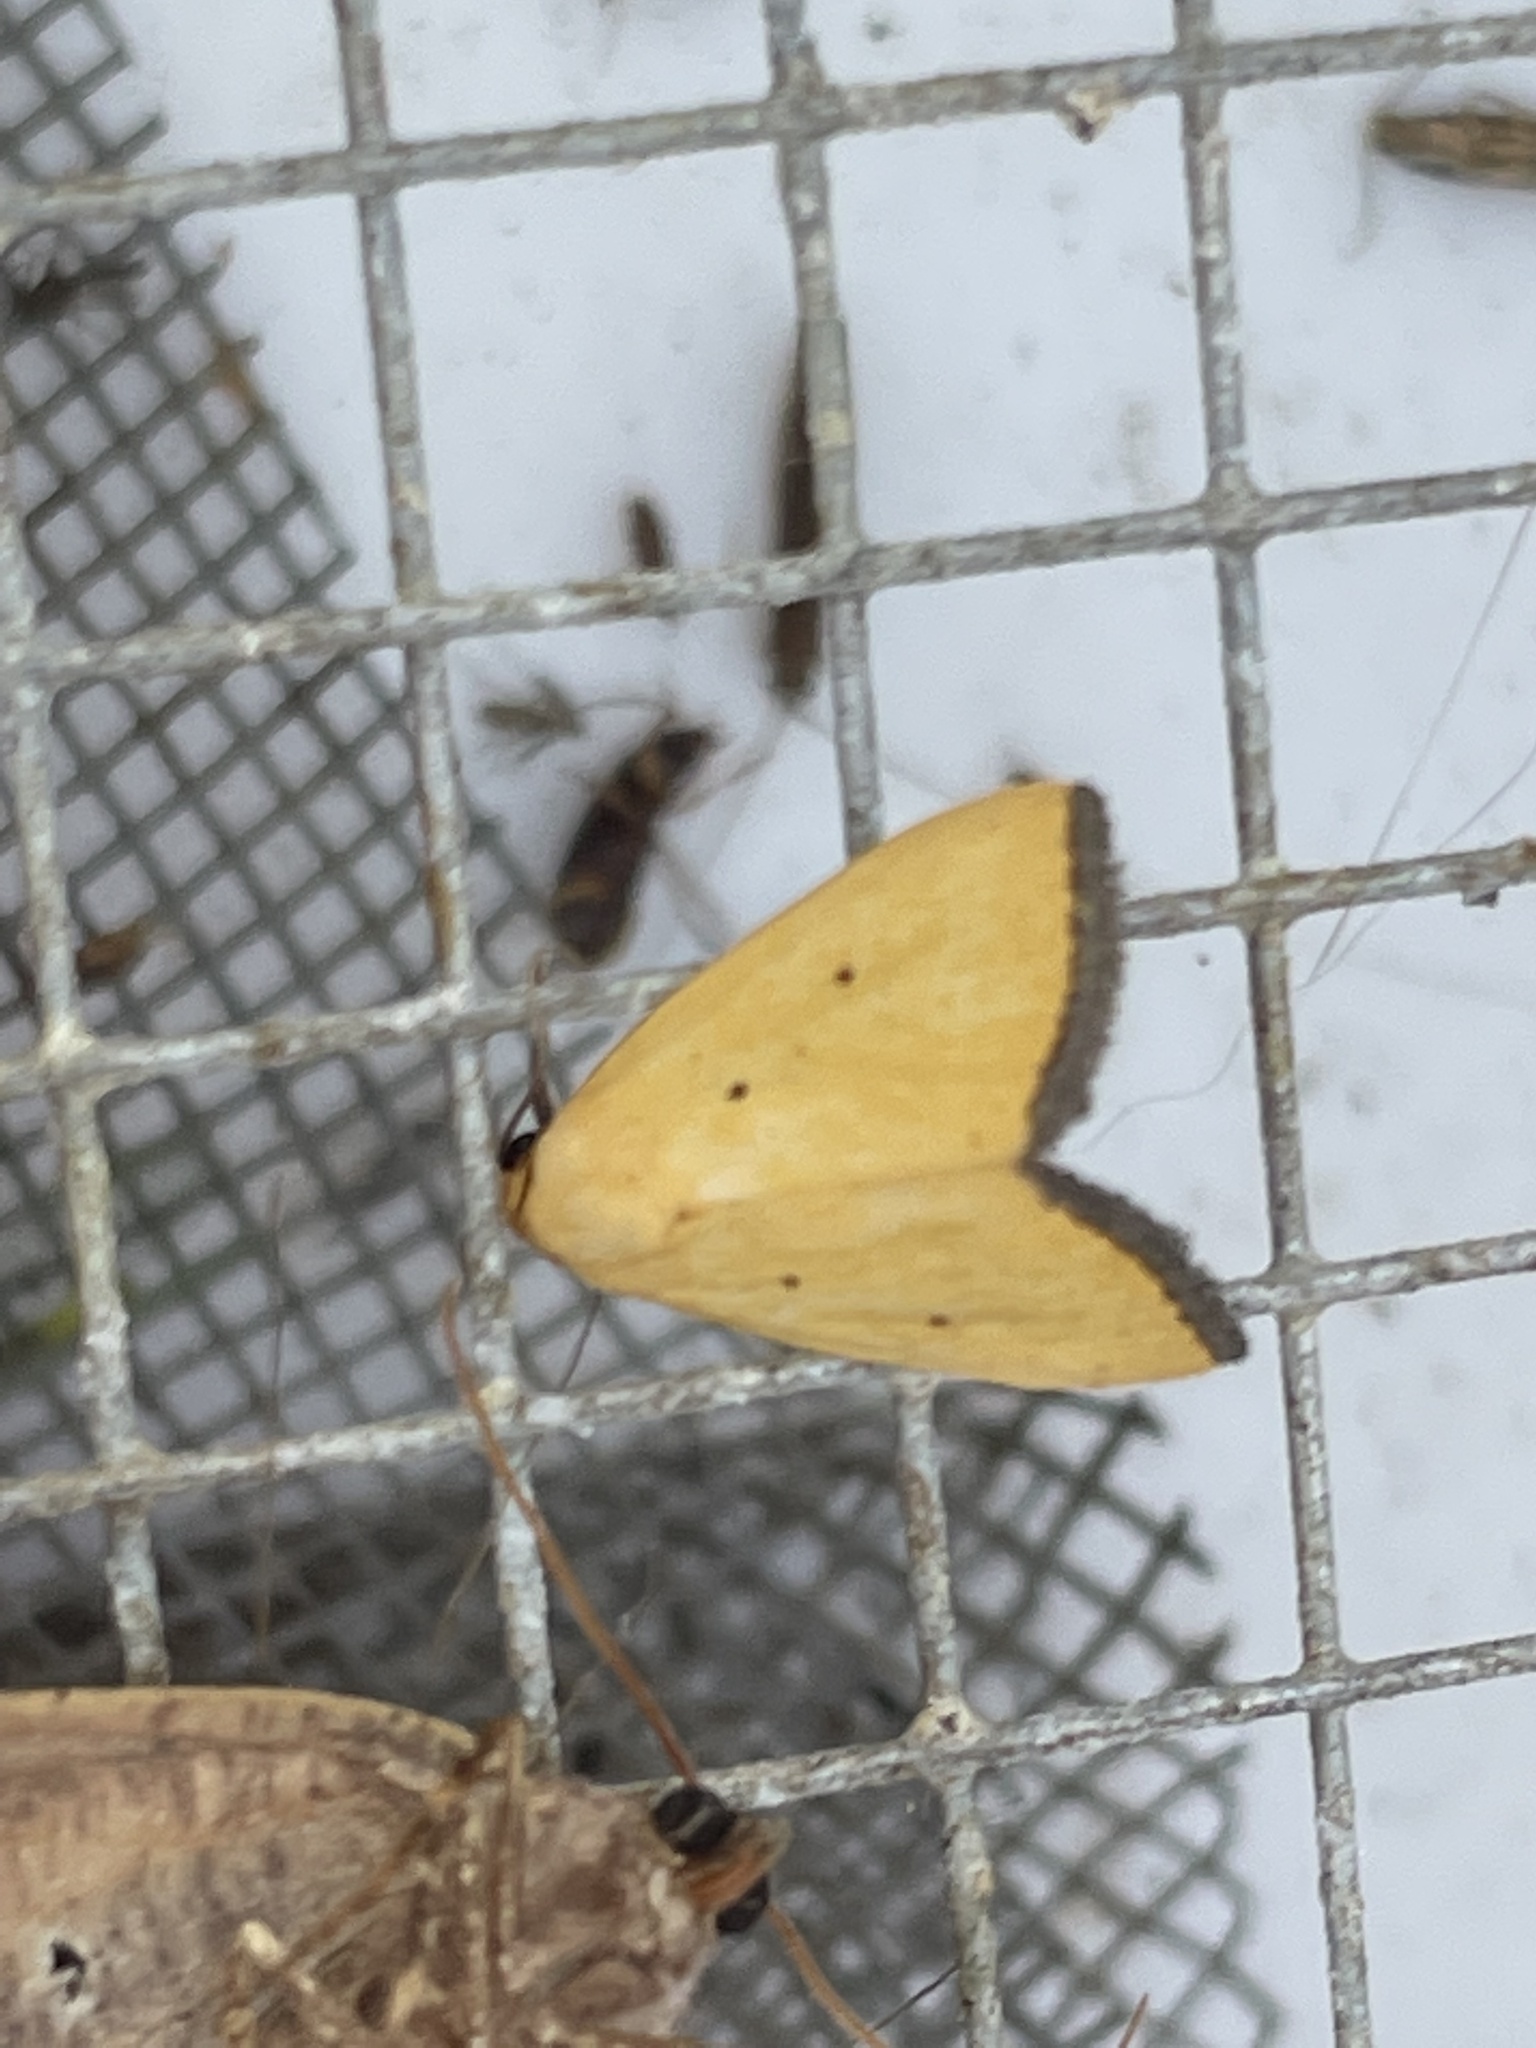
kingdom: Animalia
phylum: Arthropoda
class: Insecta
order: Lepidoptera
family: Noctuidae
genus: Marimatha
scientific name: Marimatha nigrofimbria
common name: Black-bordered lemon moth
